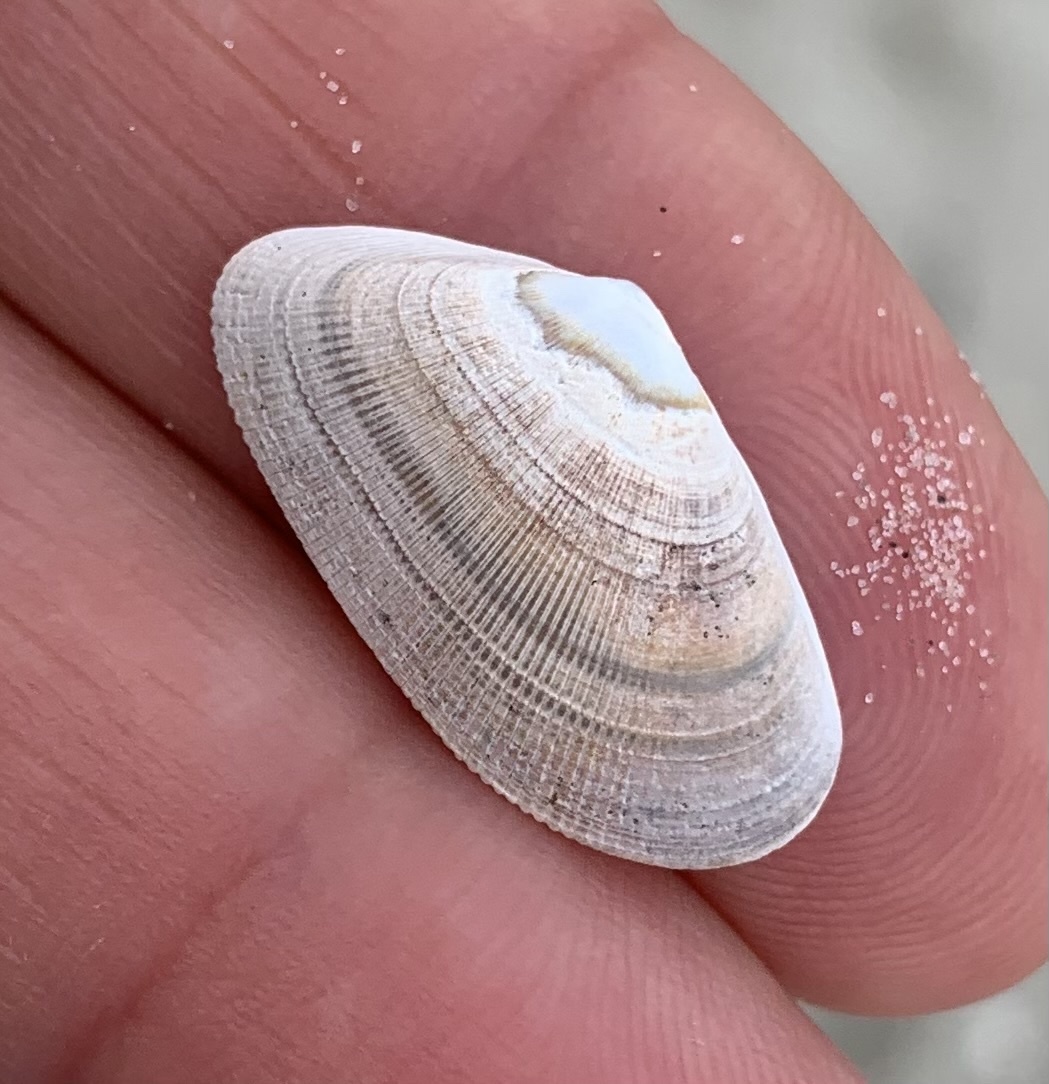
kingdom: Animalia
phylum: Mollusca
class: Bivalvia
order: Cardiida
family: Donacidae
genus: Donax
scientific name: Donax vittatus
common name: Banded wedge-shell
